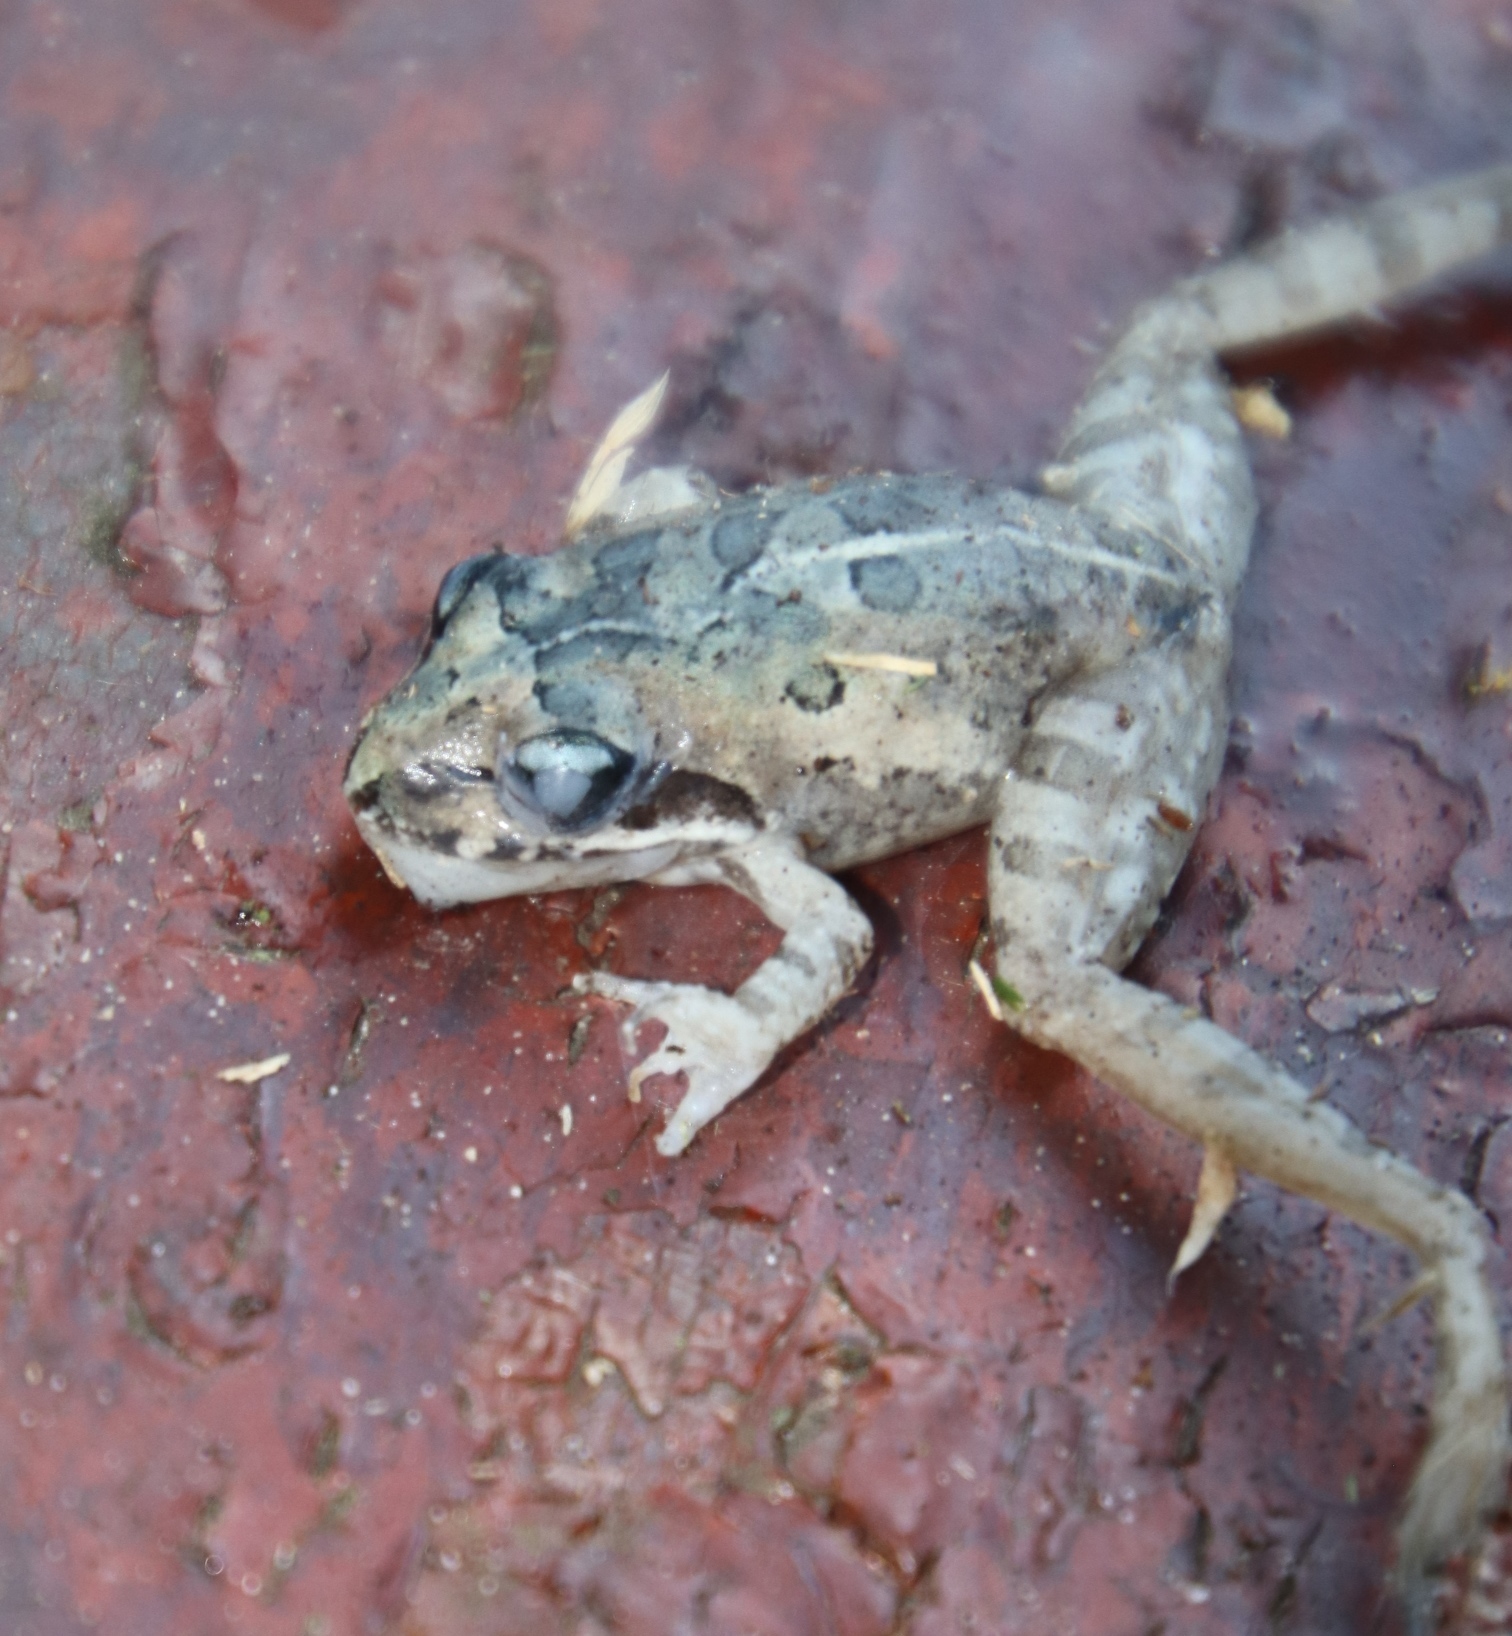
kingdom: Animalia
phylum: Chordata
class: Amphibia
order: Anura
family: Pyxicephalidae
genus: Strongylopus
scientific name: Strongylopus grayii
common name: Gray's stream frog
